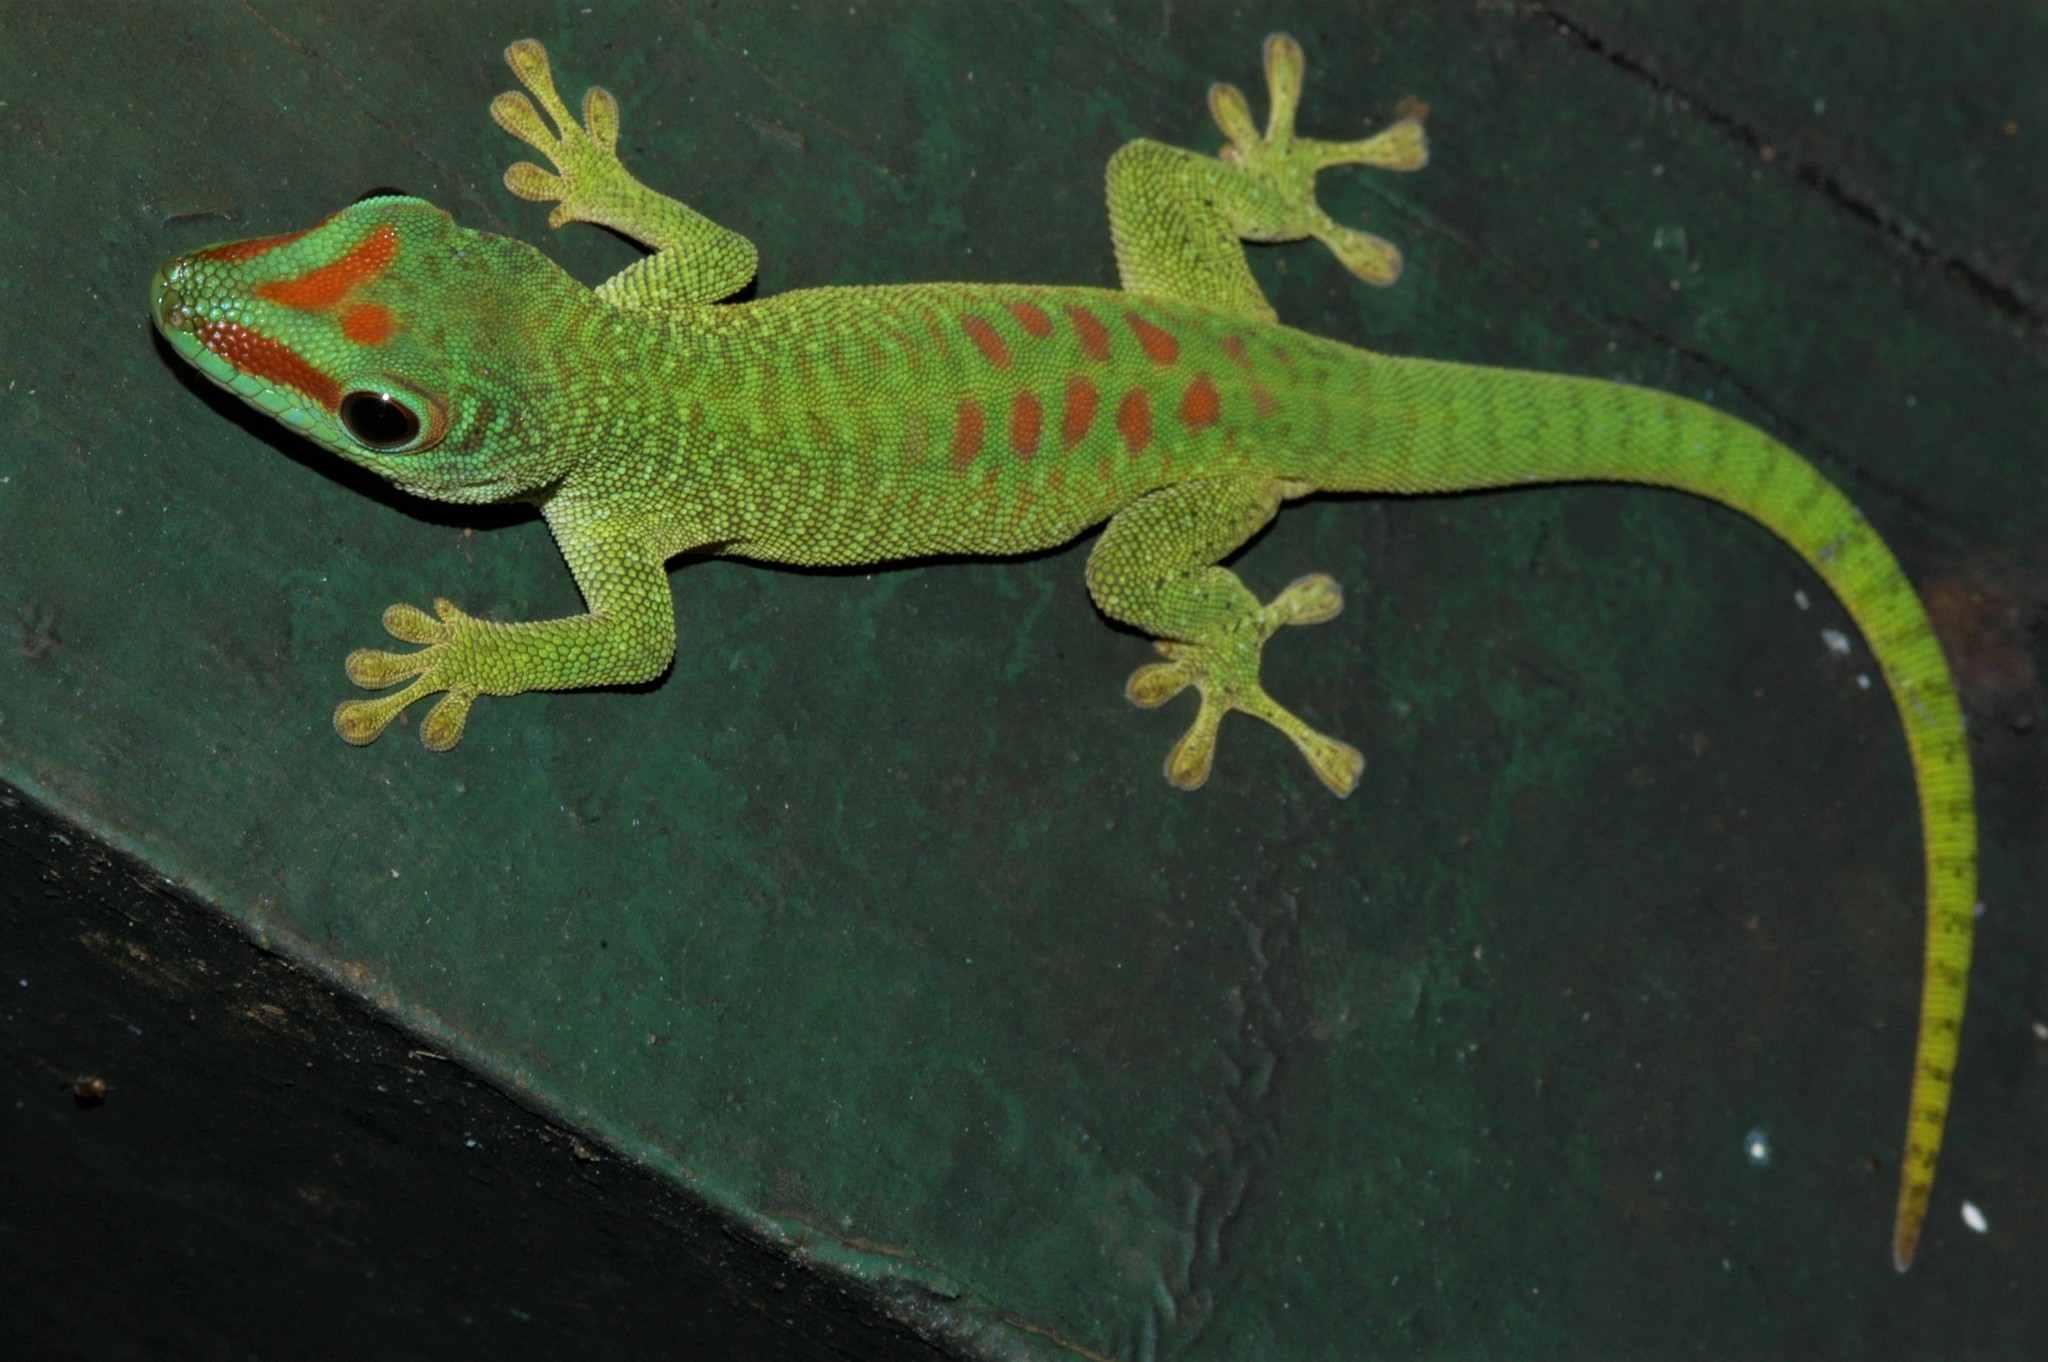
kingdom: Animalia
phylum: Chordata
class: Squamata
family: Gekkonidae
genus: Phelsuma
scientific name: Phelsuma grandis
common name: Madagascar giant day gecko
